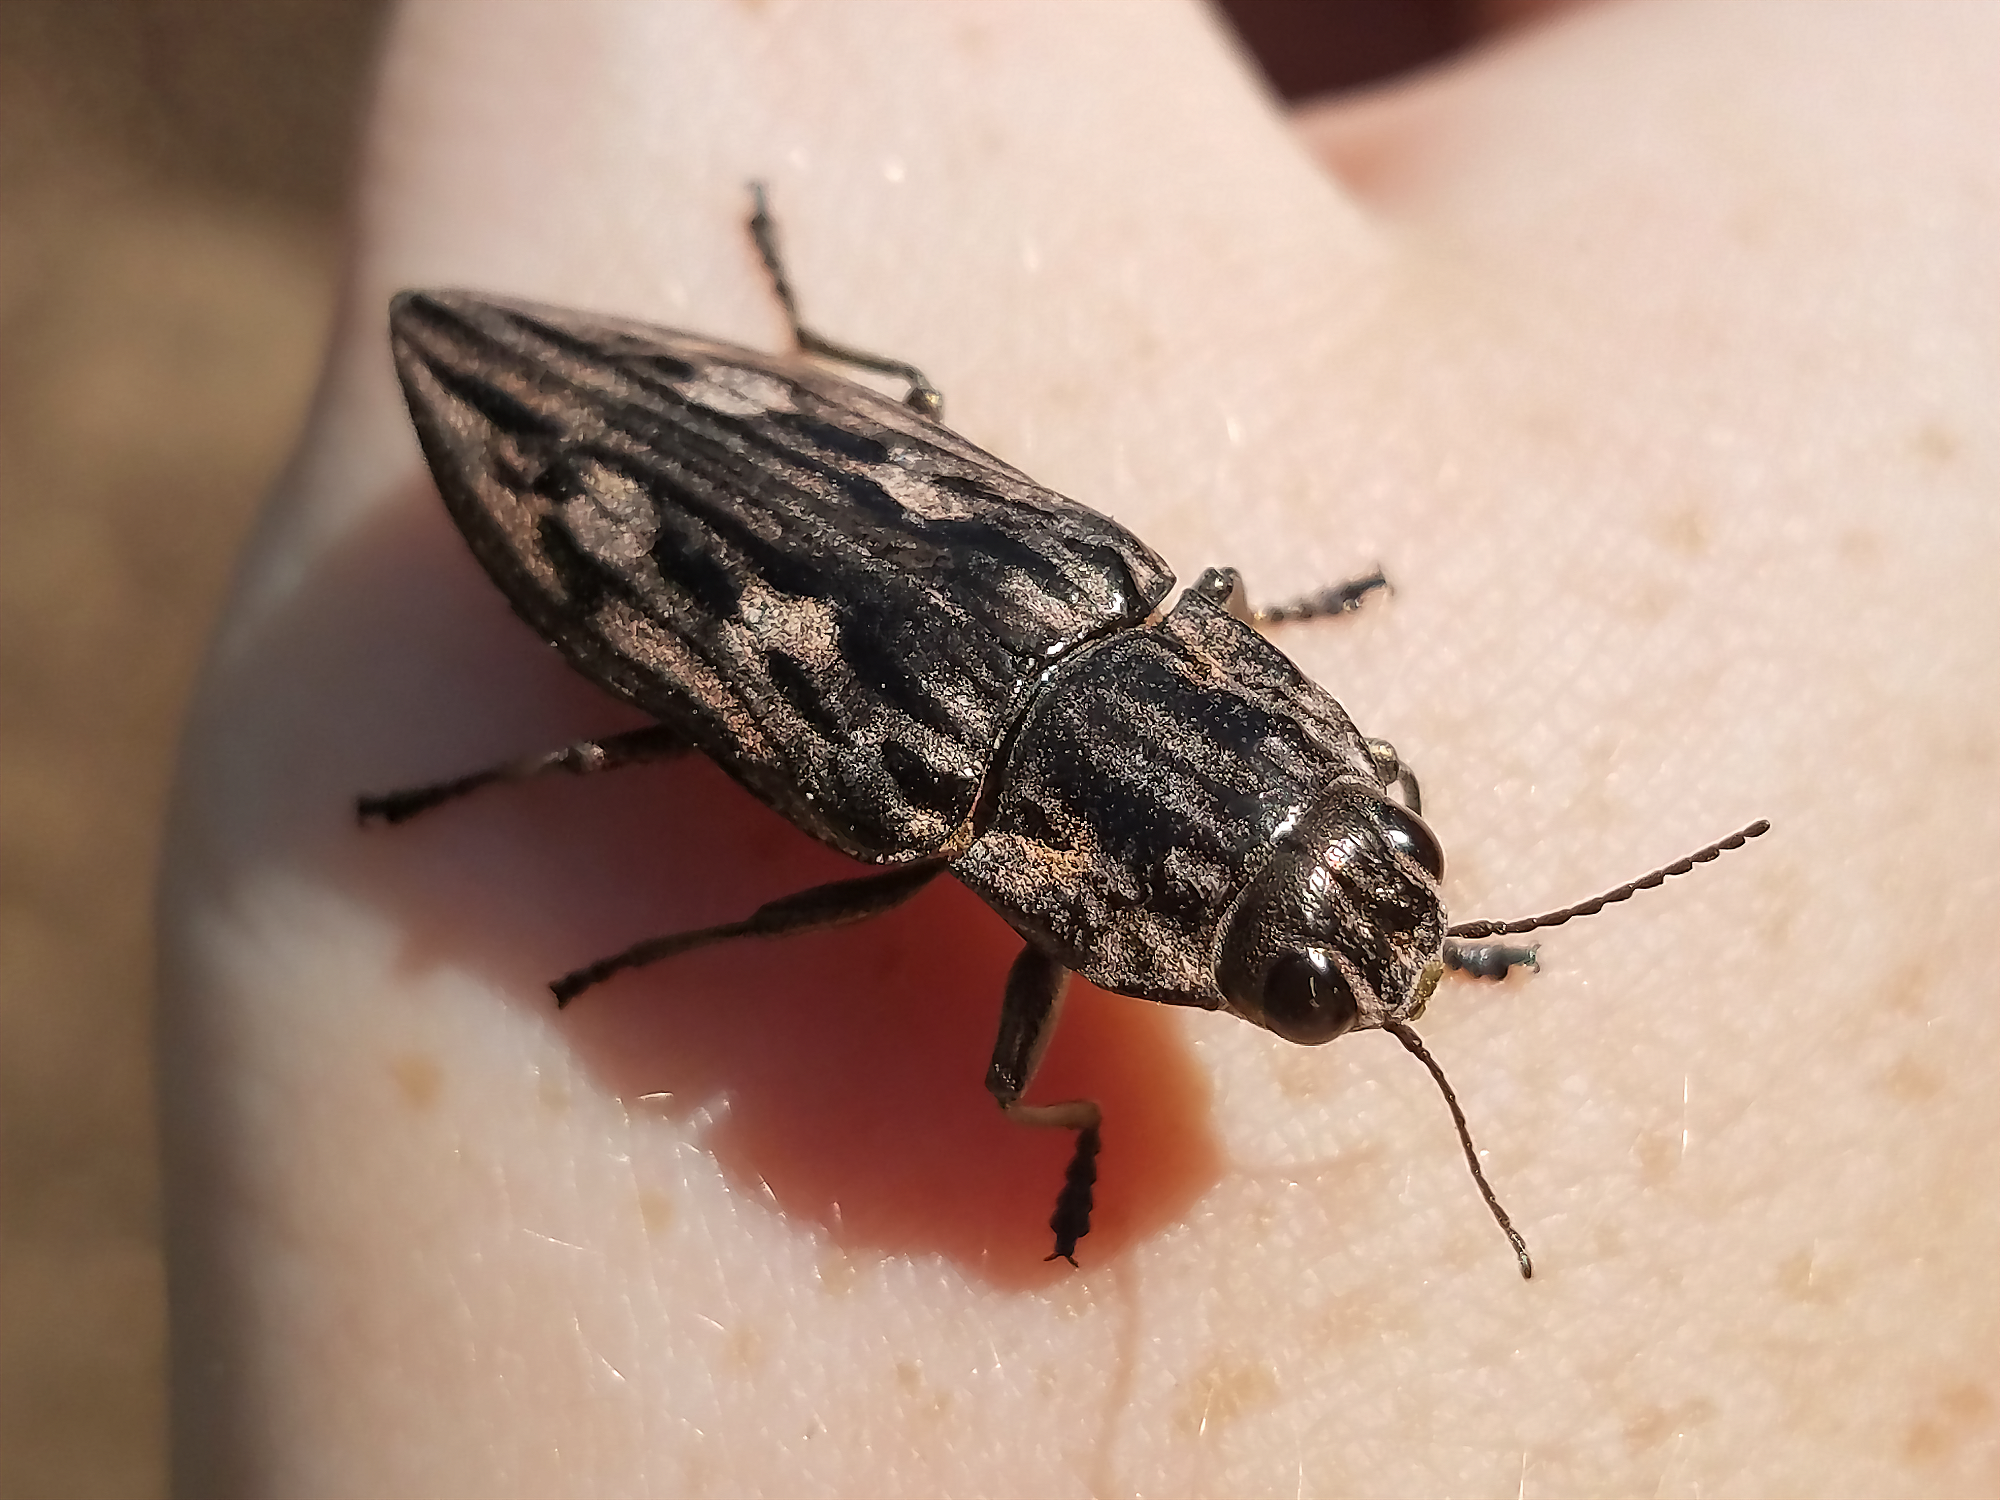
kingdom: Animalia
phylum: Arthropoda
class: Insecta
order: Coleoptera
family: Buprestidae
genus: Chalcophora
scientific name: Chalcophora virginiensis
